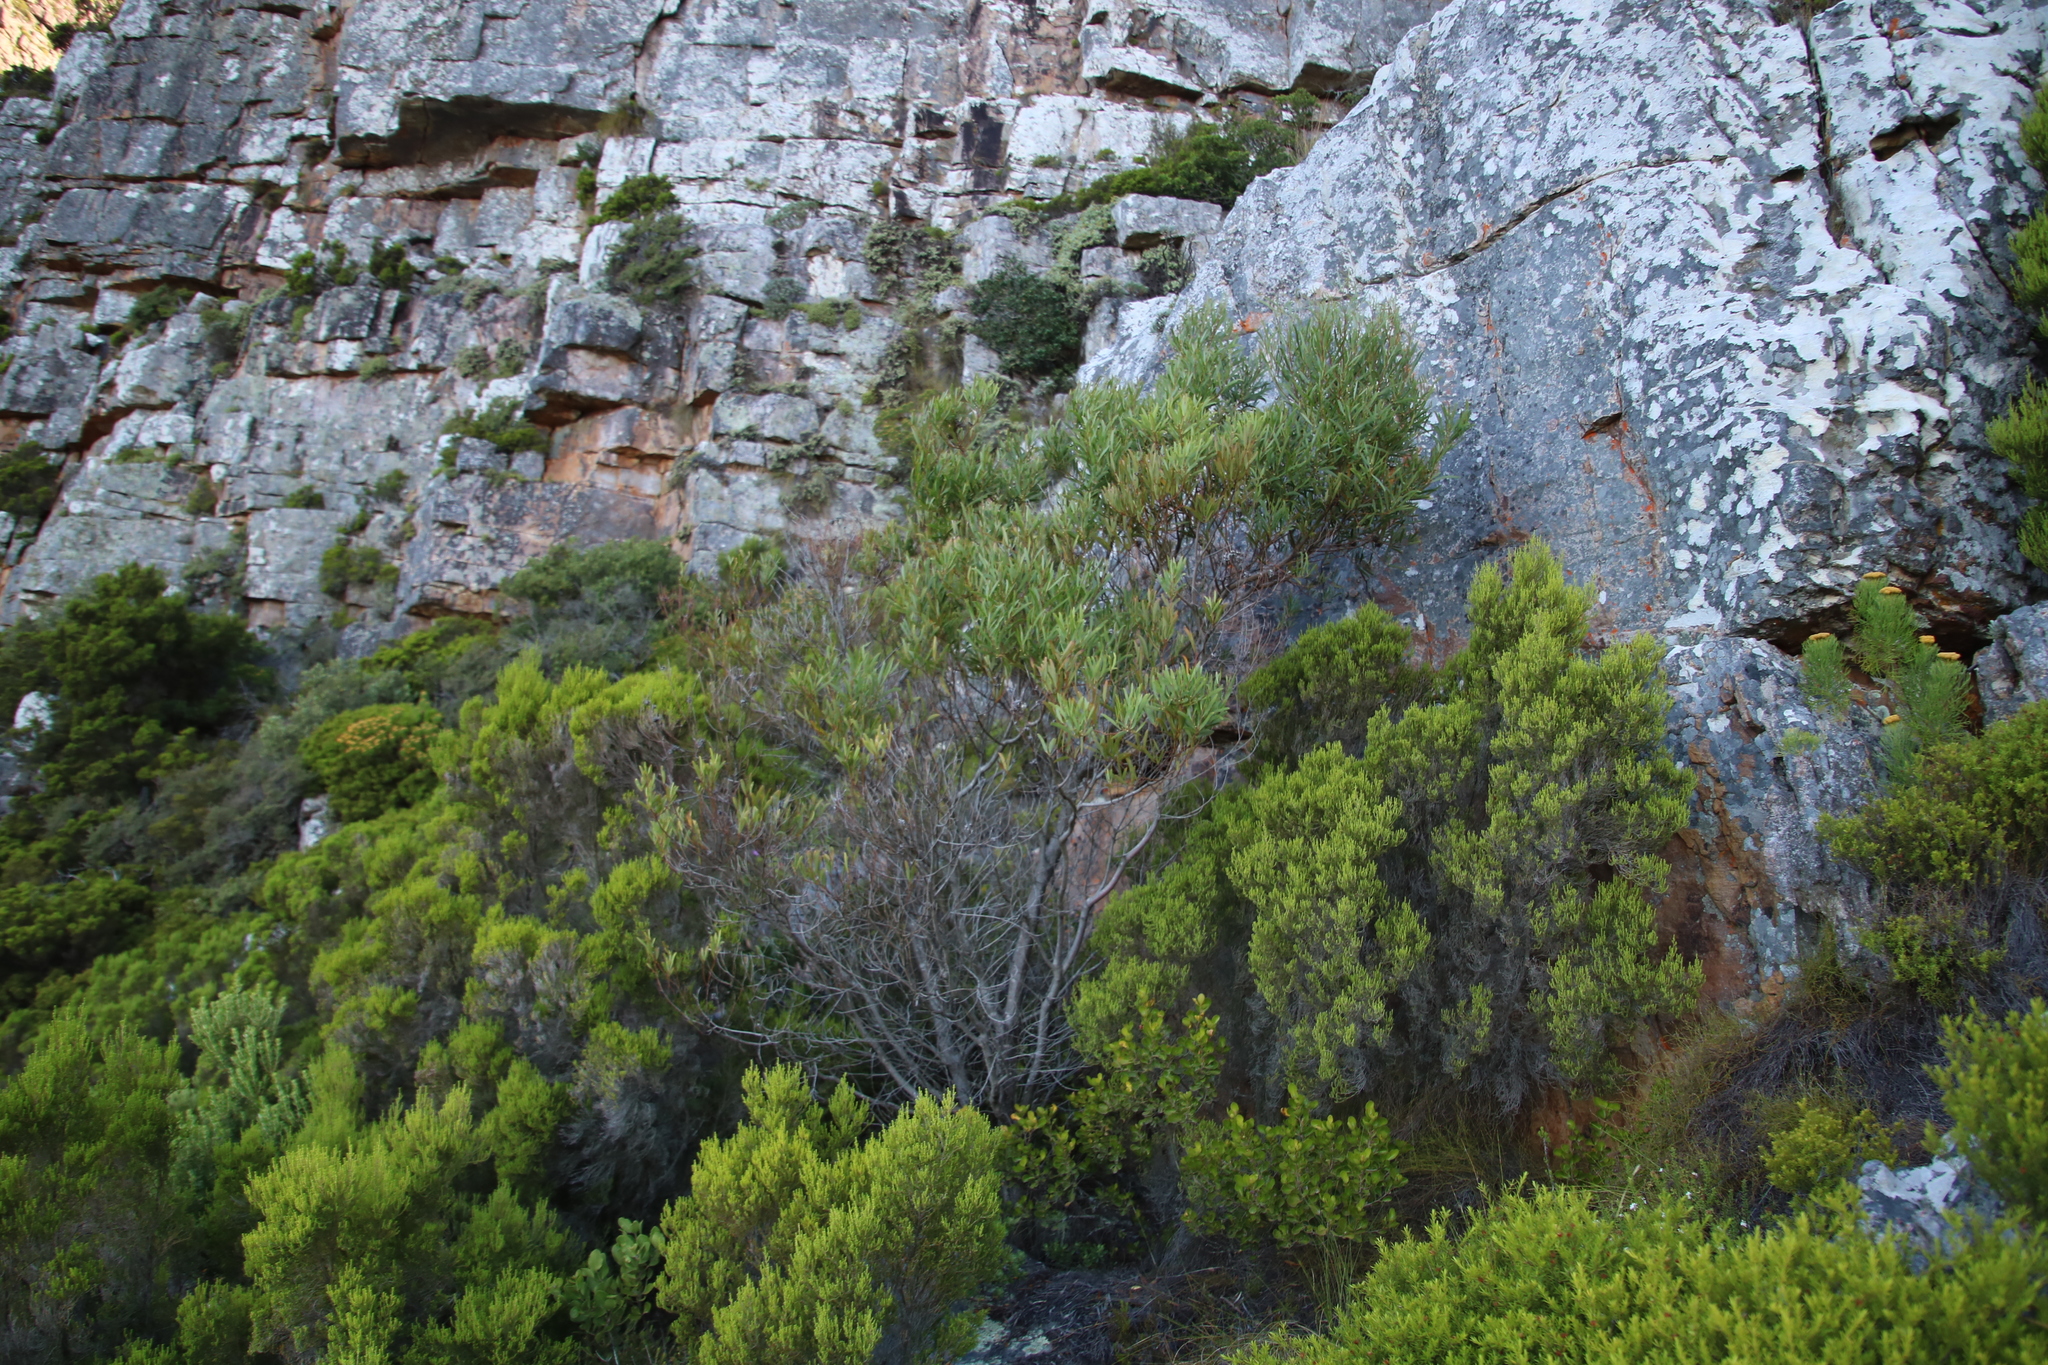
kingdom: Plantae
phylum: Tracheophyta
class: Magnoliopsida
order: Fabales
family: Fabaceae
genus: Acacia
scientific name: Acacia cyclops
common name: Coastal wattle
